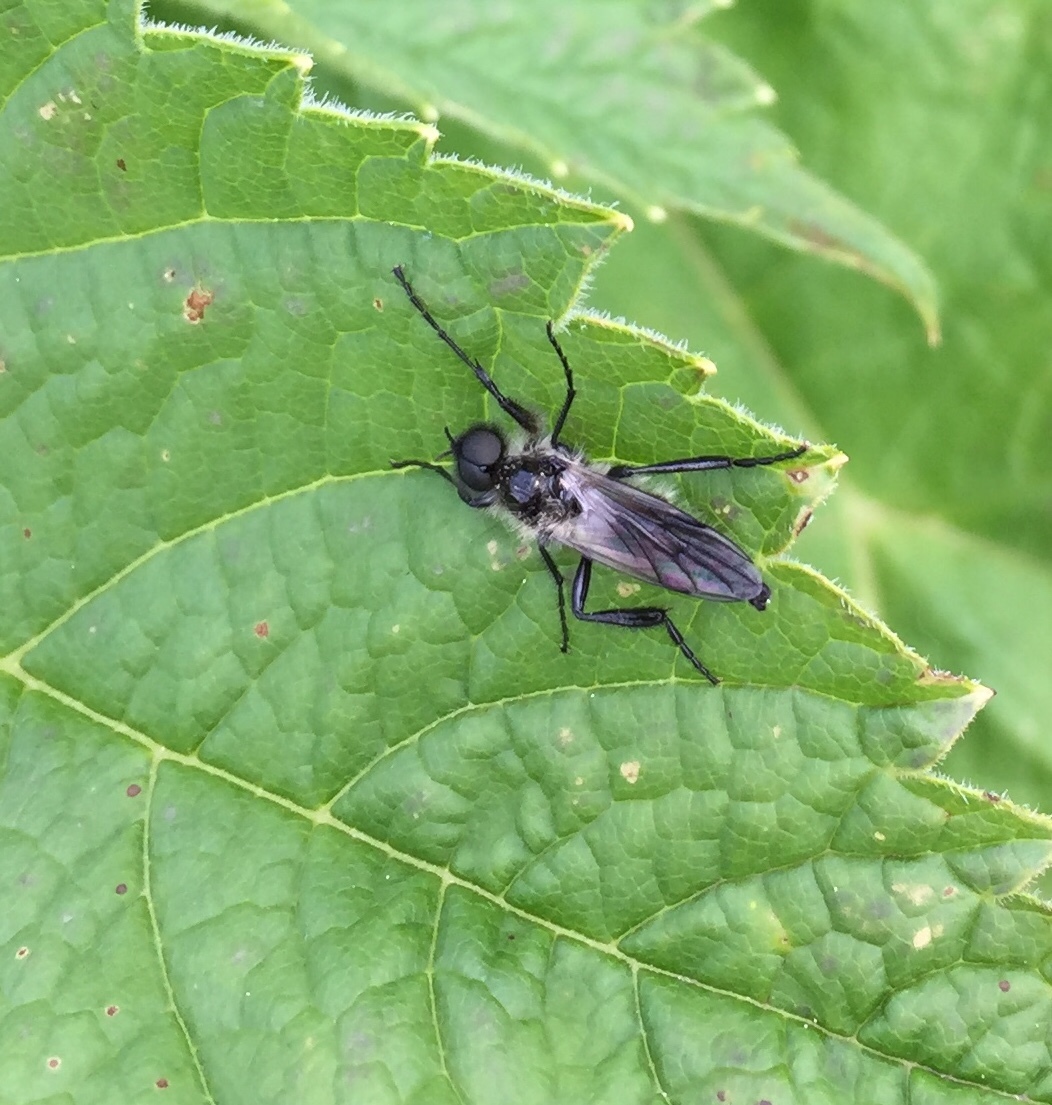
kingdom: Animalia
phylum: Arthropoda
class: Insecta
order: Diptera
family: Bibionidae
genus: Bibio
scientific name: Bibio albipennis
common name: White-winged march fly
